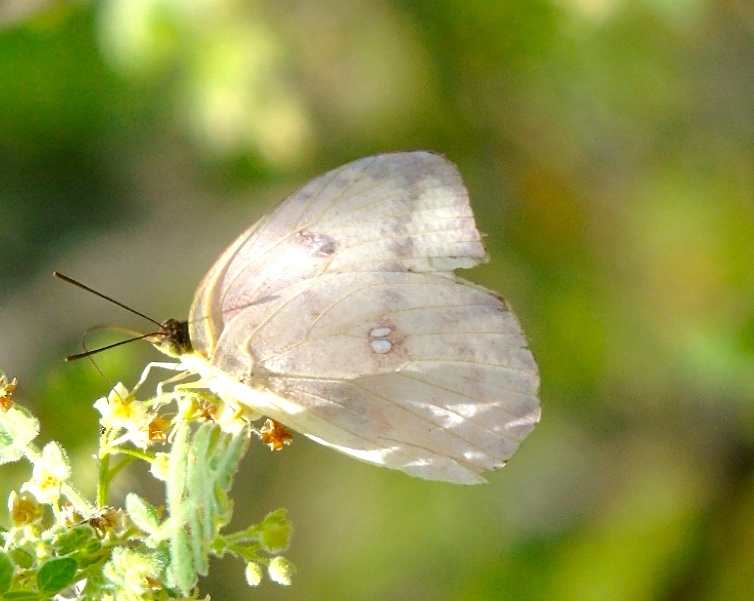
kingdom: Animalia
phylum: Arthropoda
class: Insecta
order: Lepidoptera
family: Pieridae
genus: Phoebis
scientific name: Phoebis agarithe
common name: Large orange sulphur
